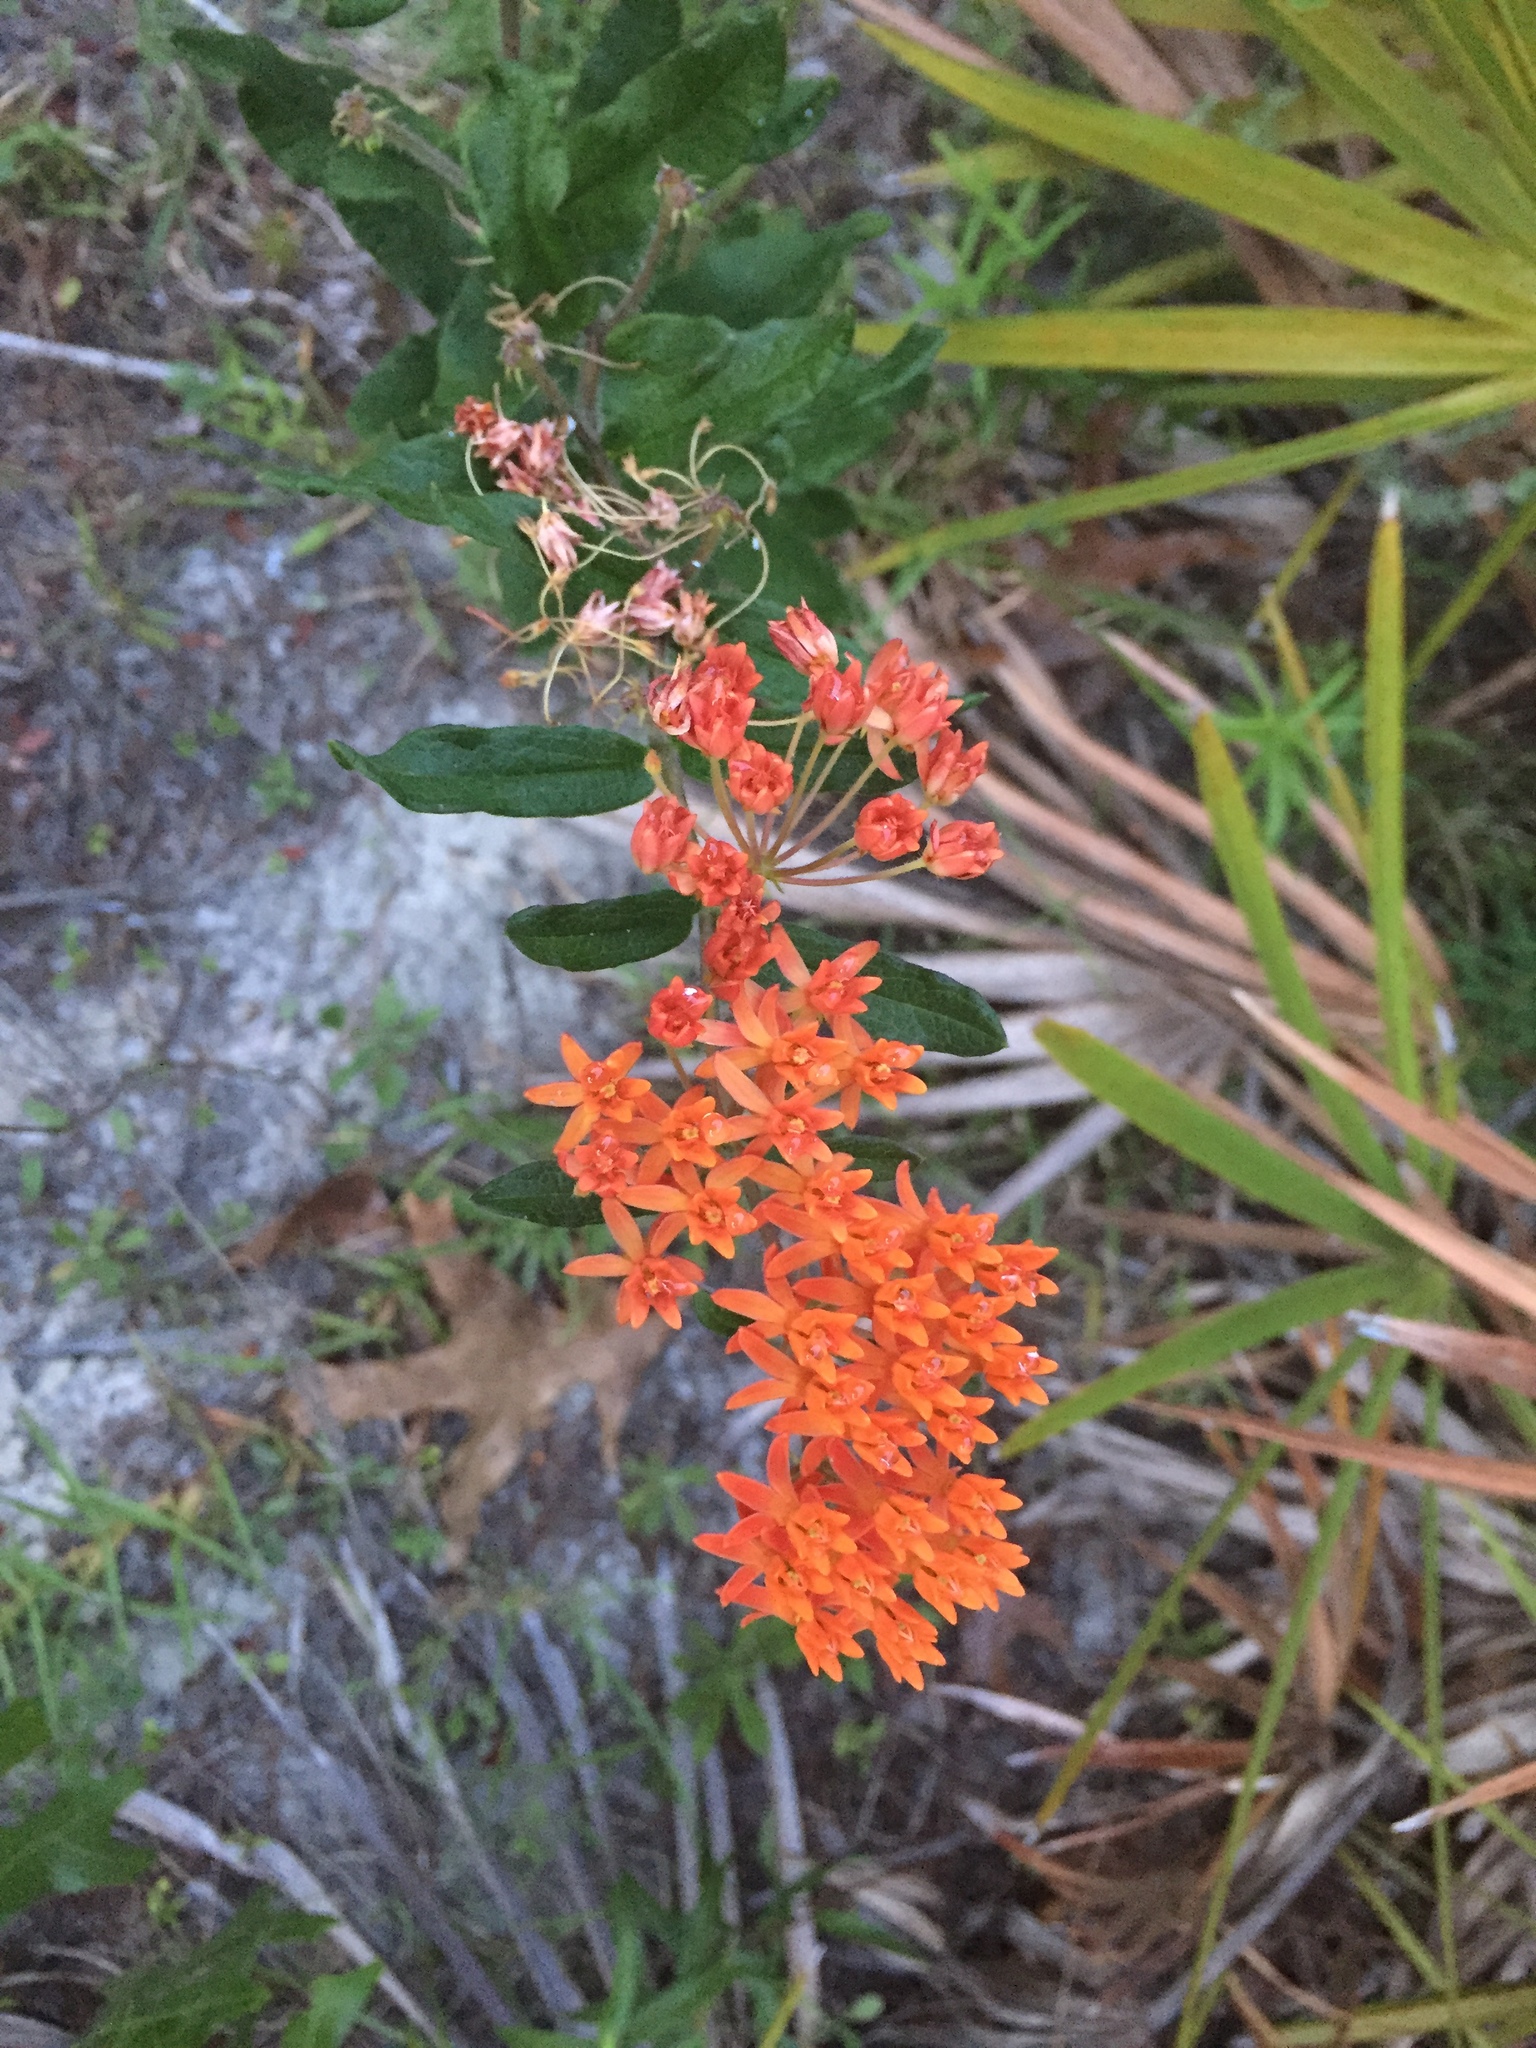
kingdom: Plantae
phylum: Tracheophyta
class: Magnoliopsida
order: Gentianales
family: Apocynaceae
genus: Asclepias
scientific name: Asclepias tuberosa
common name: Butterfly milkweed
